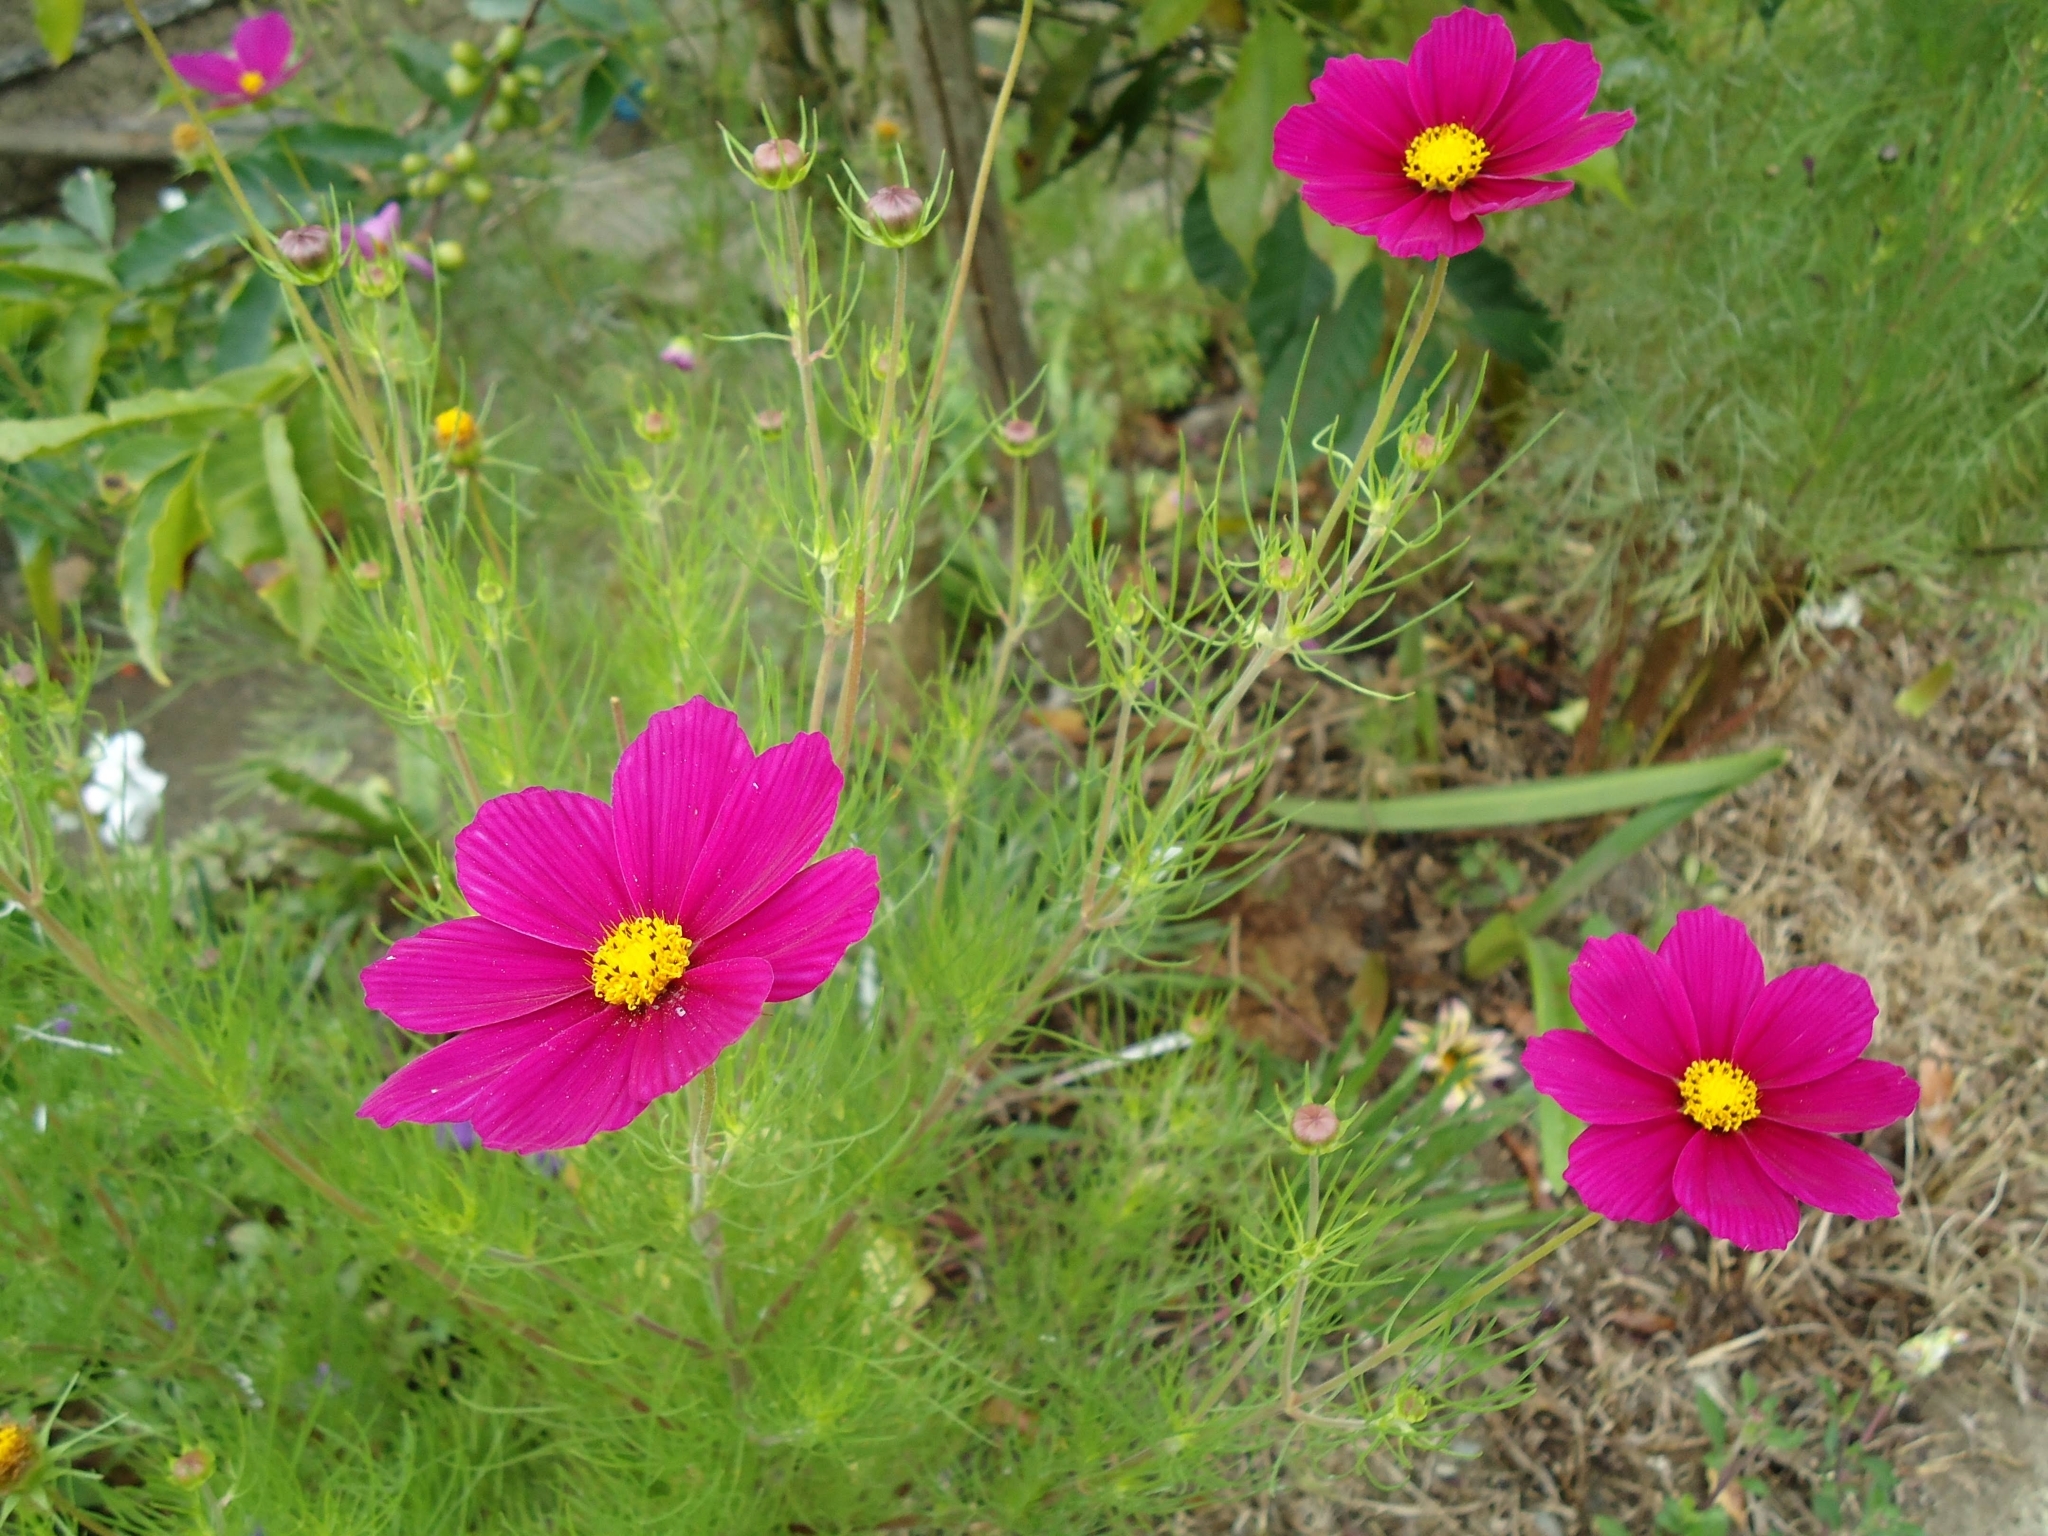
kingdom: Plantae
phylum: Tracheophyta
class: Magnoliopsida
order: Asterales
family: Asteraceae
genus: Cosmos
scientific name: Cosmos bipinnatus
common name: Garden cosmos
